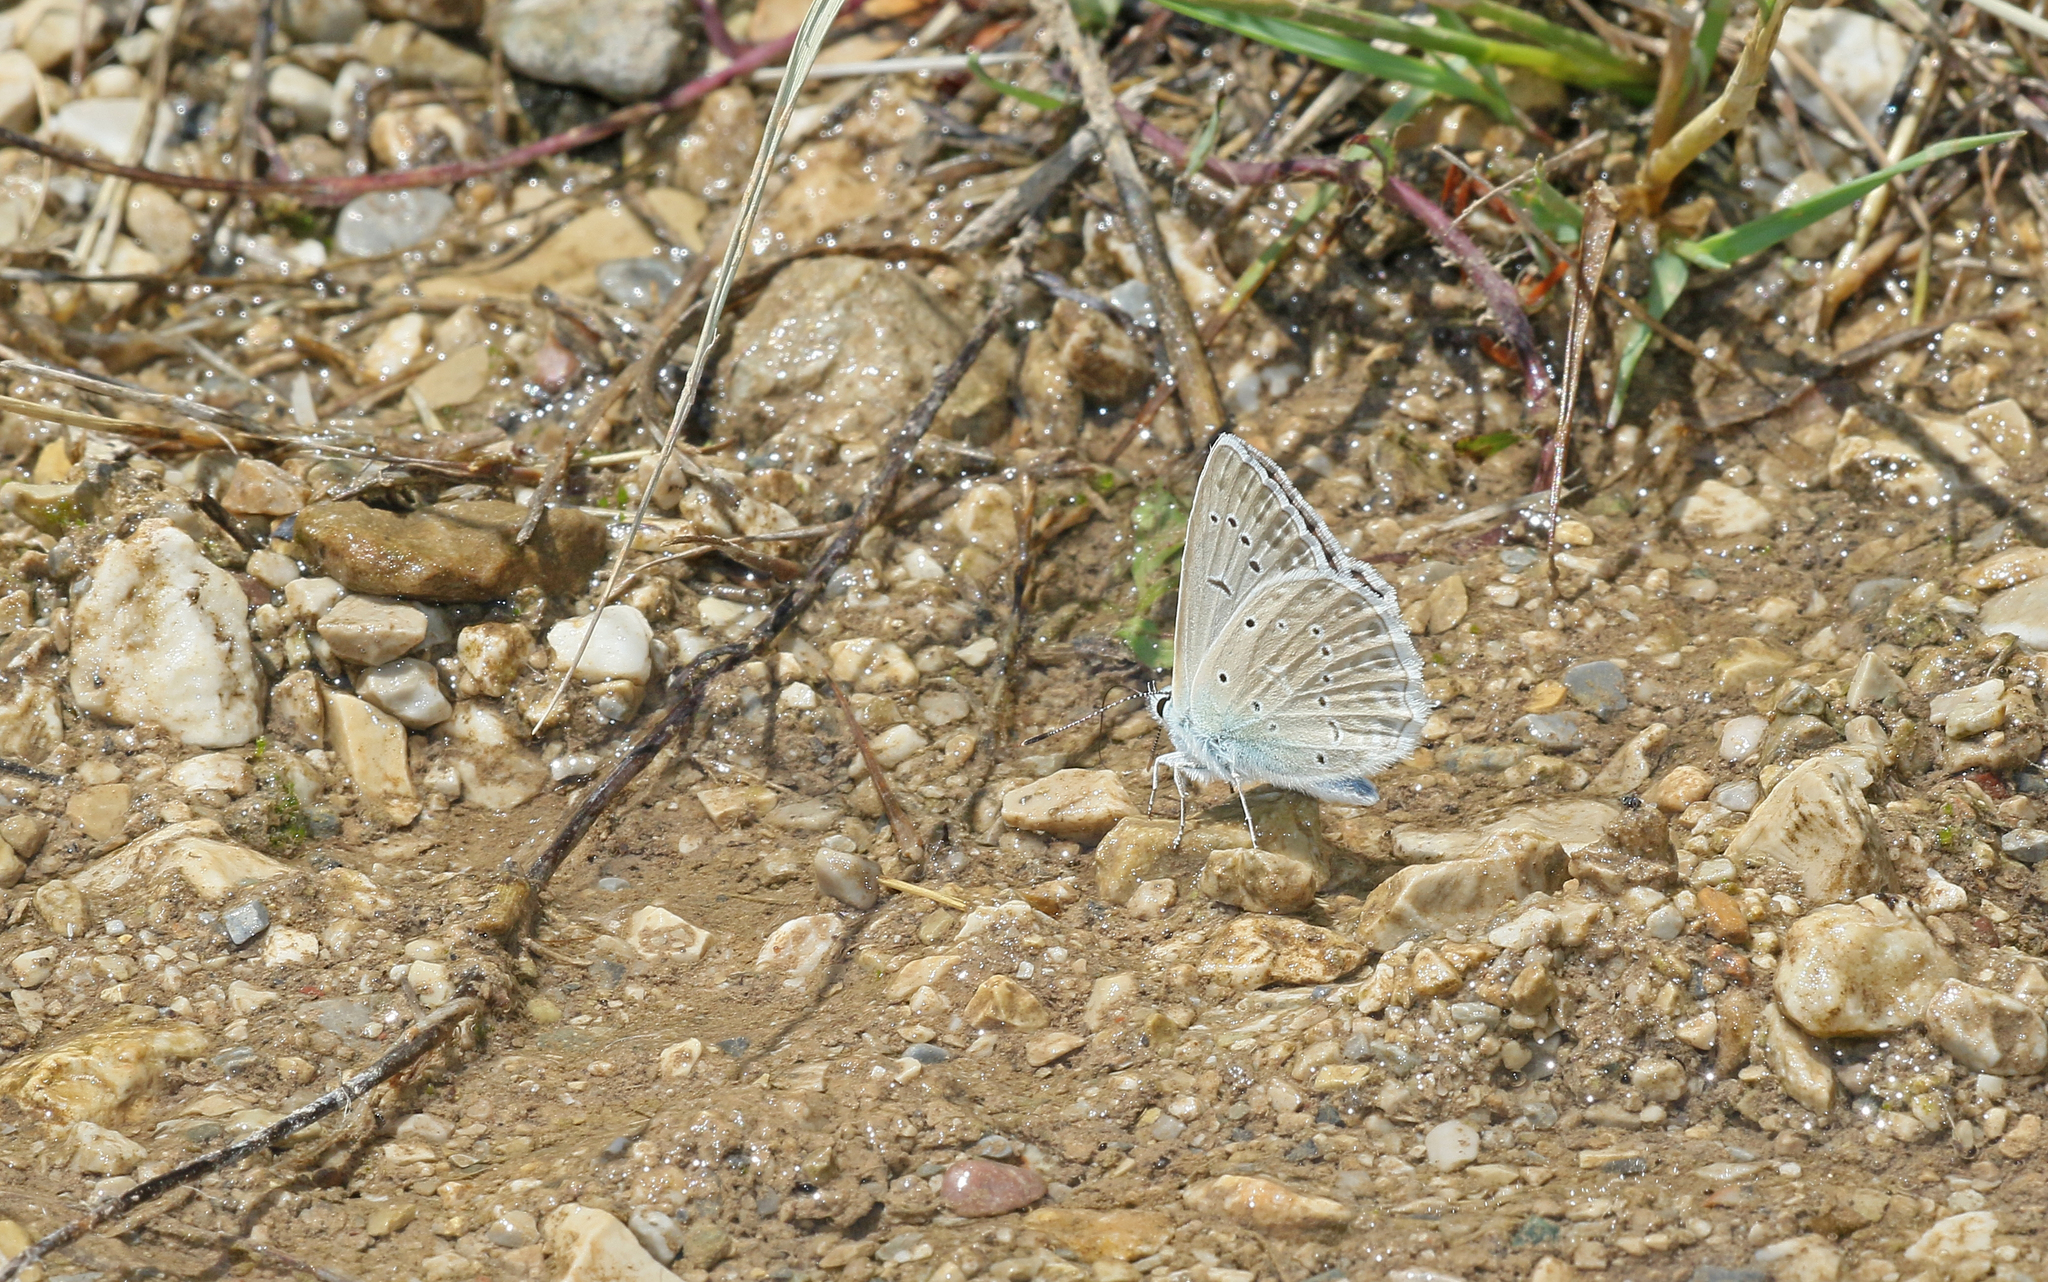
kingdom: Animalia
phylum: Arthropoda
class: Insecta
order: Lepidoptera
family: Lycaenidae
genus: Polyommatus
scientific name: Polyommatus daphnis
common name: Meleager's blue
